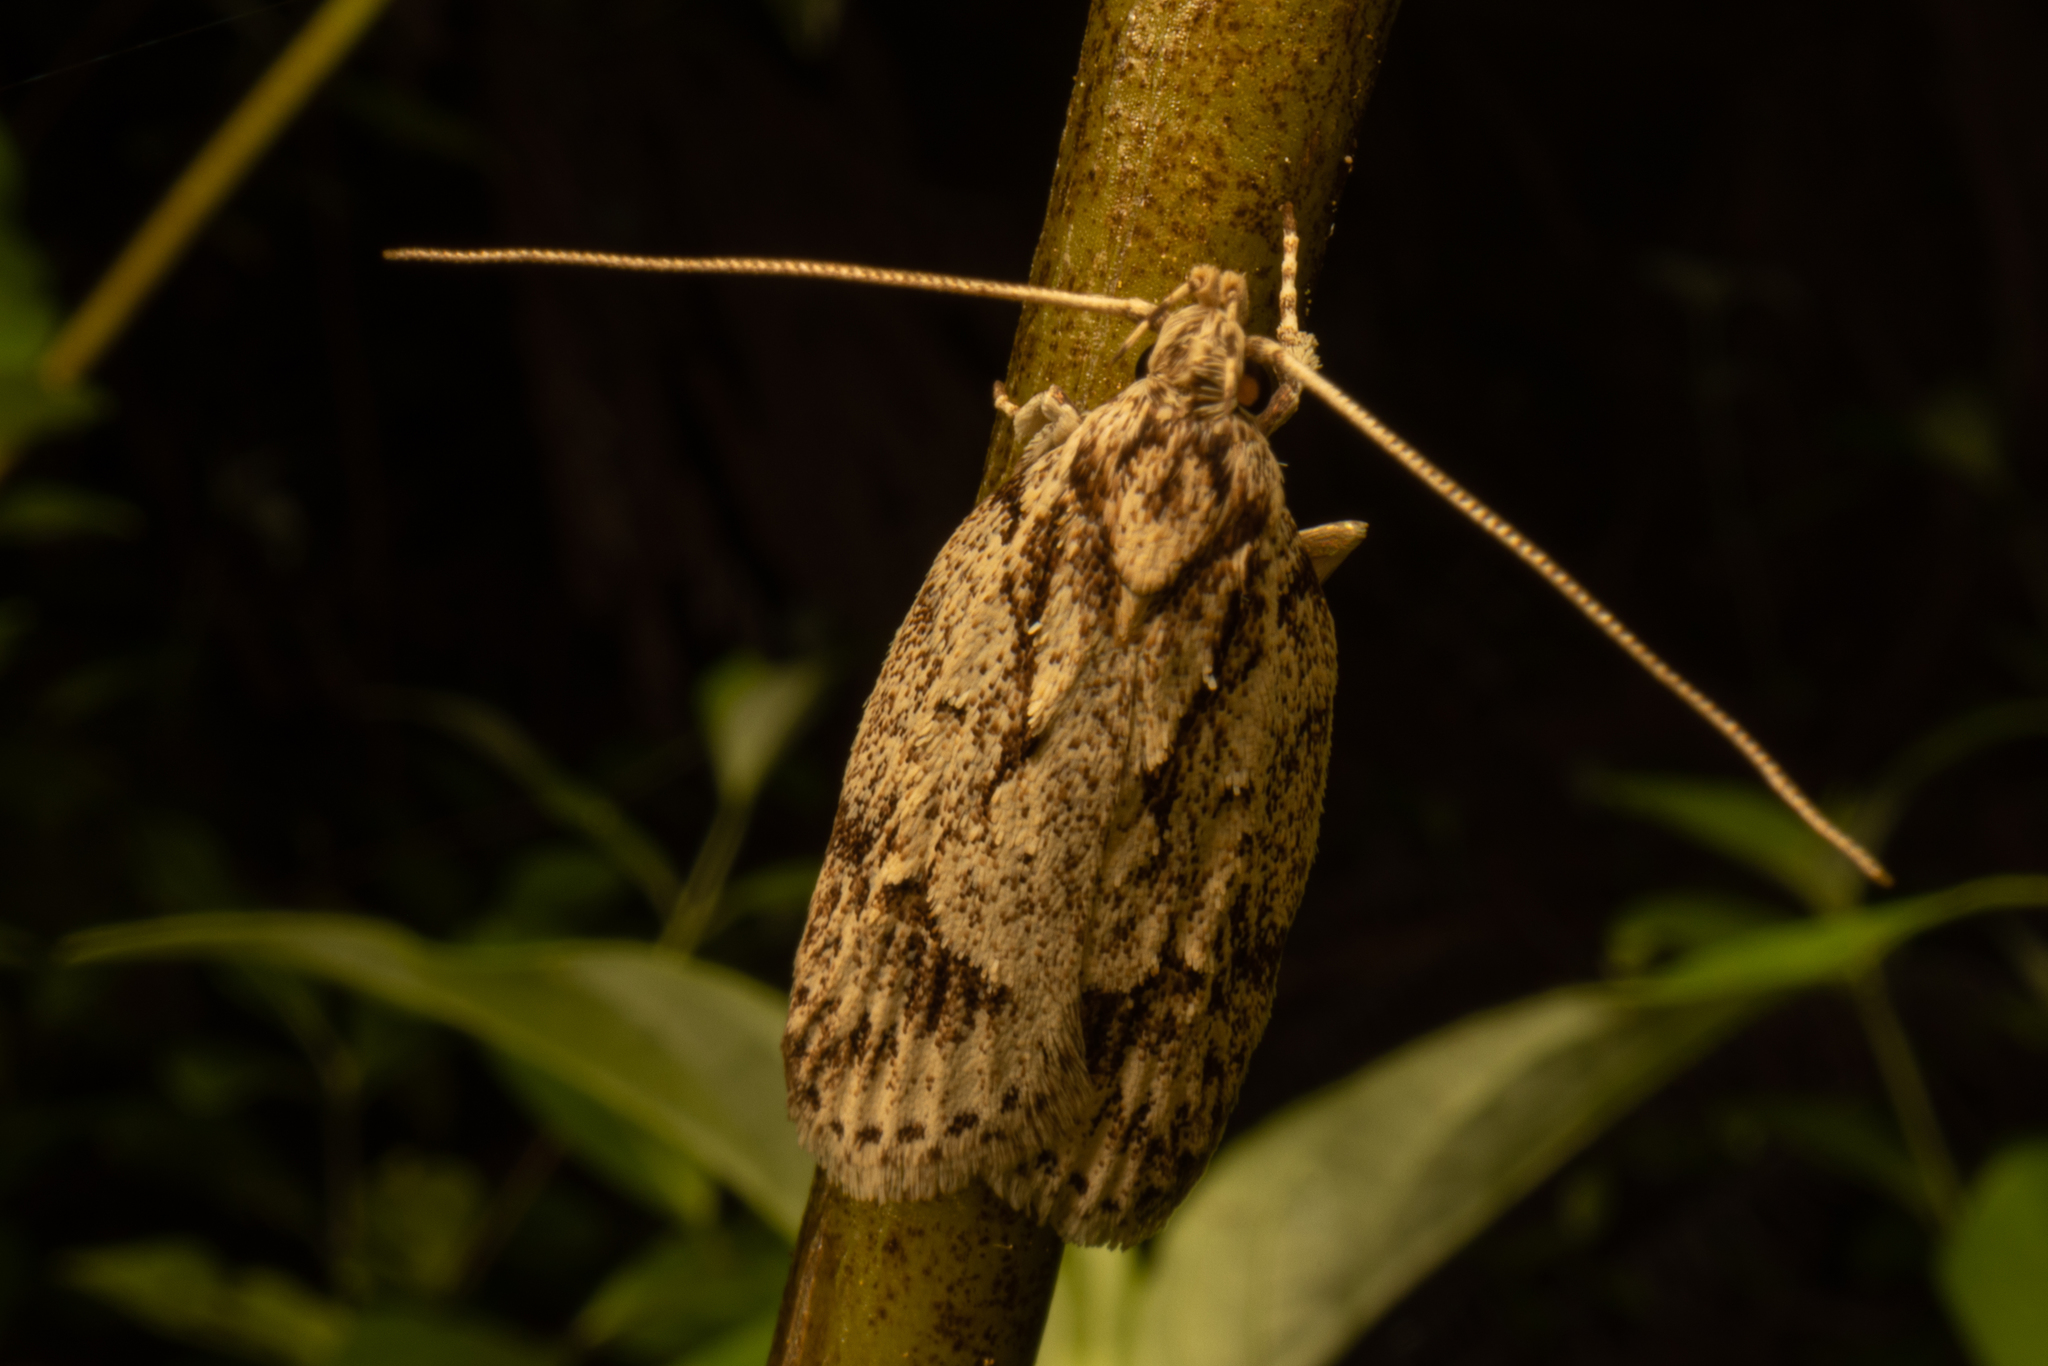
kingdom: Animalia
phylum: Arthropoda
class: Insecta
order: Lepidoptera
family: Oecophoridae
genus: Izatha
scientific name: Izatha blepharidota
